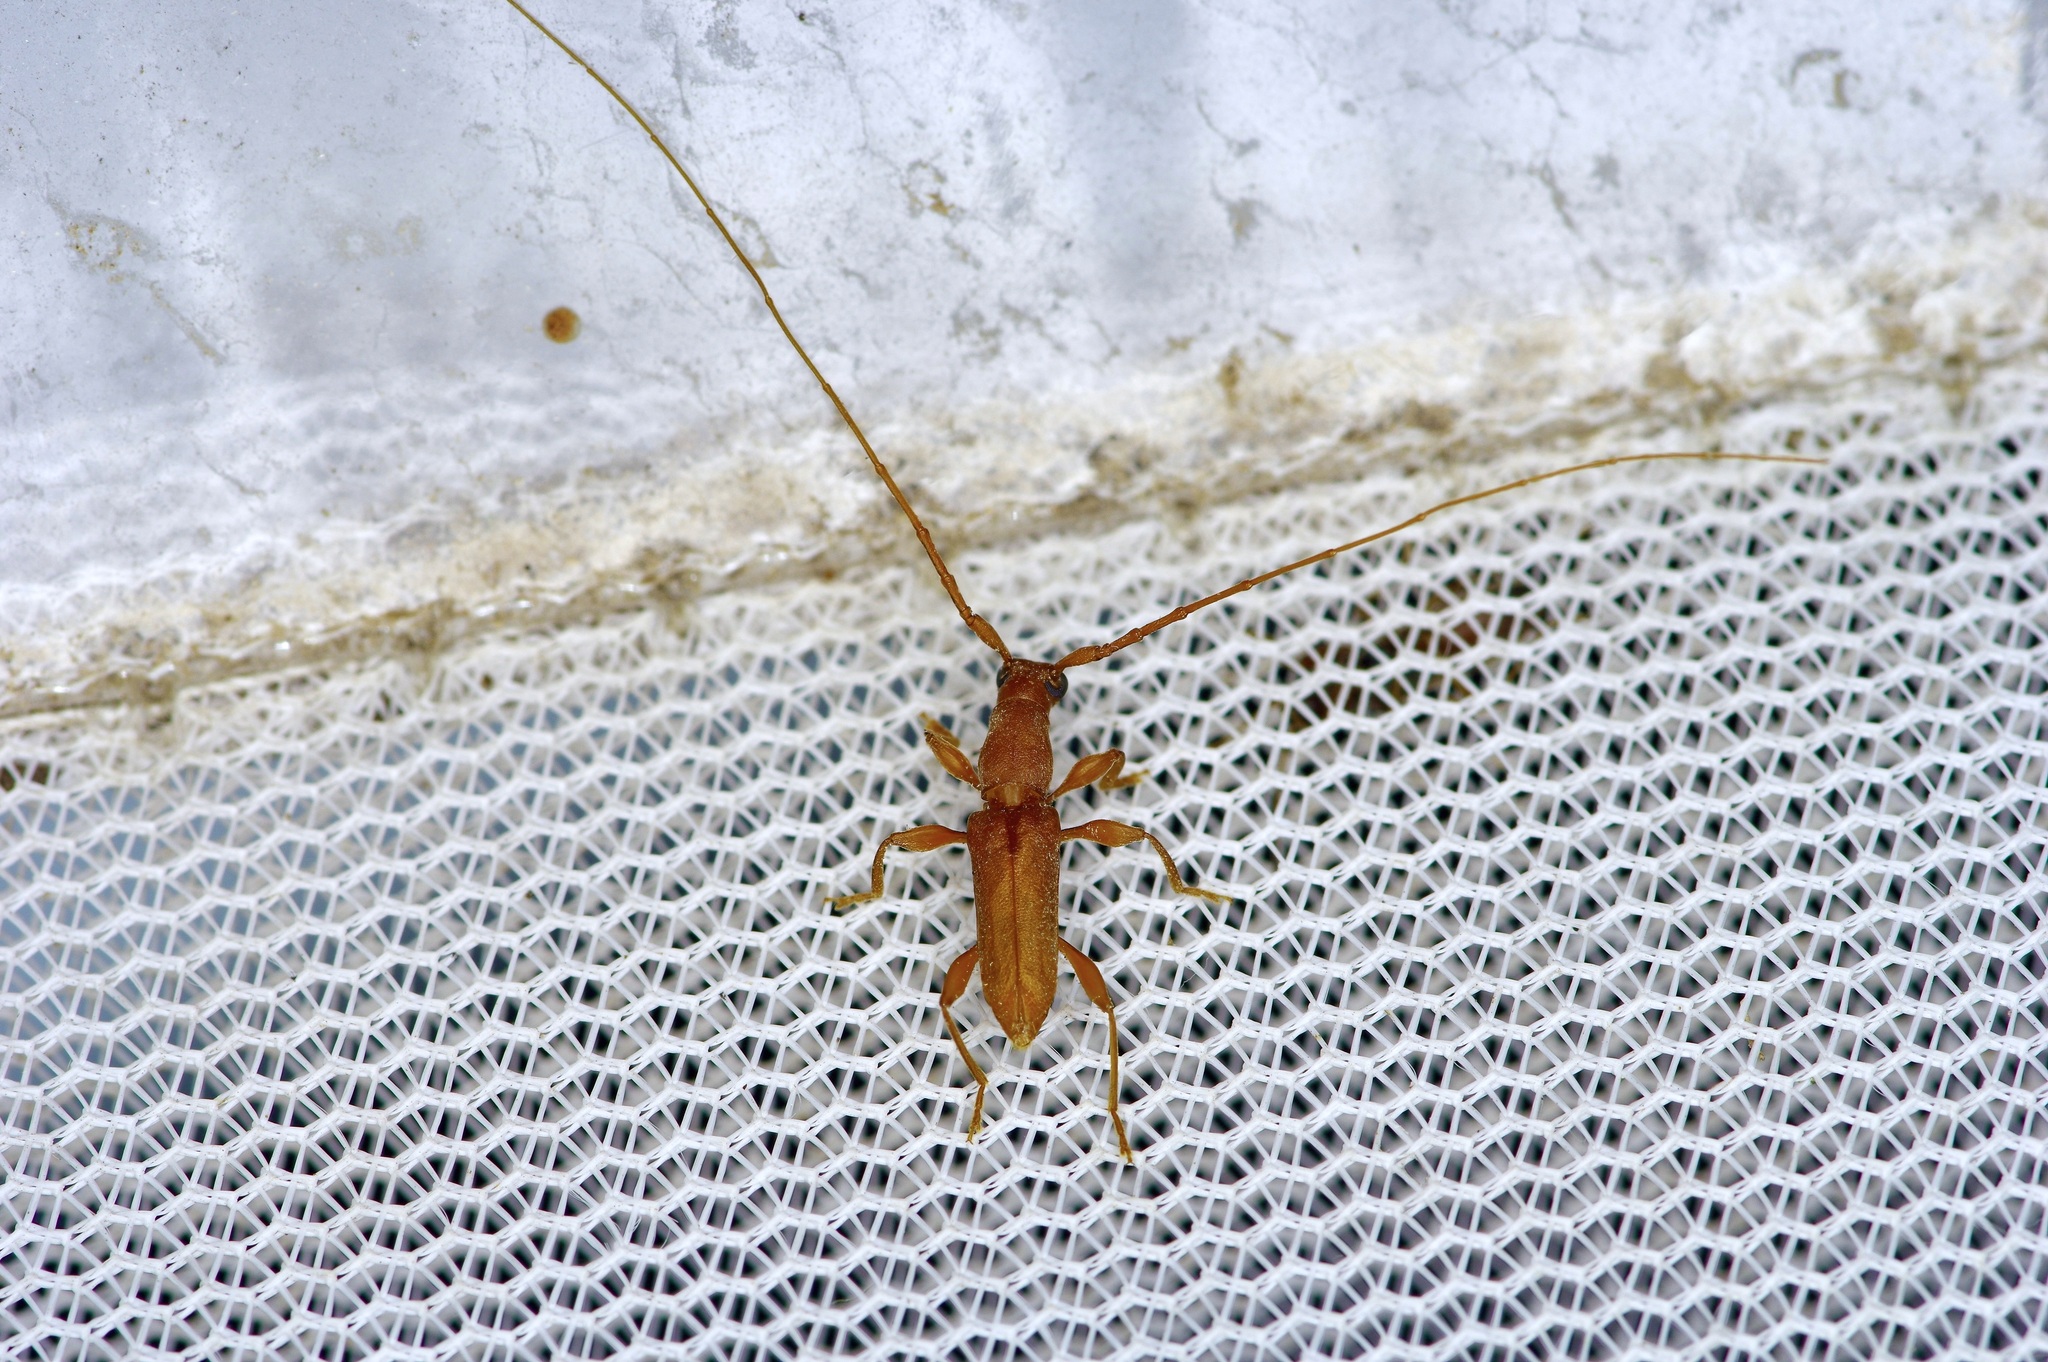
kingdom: Animalia
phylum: Arthropoda
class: Insecta
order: Coleoptera
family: Cerambycidae
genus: Hypexilis
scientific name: Hypexilis pallida
